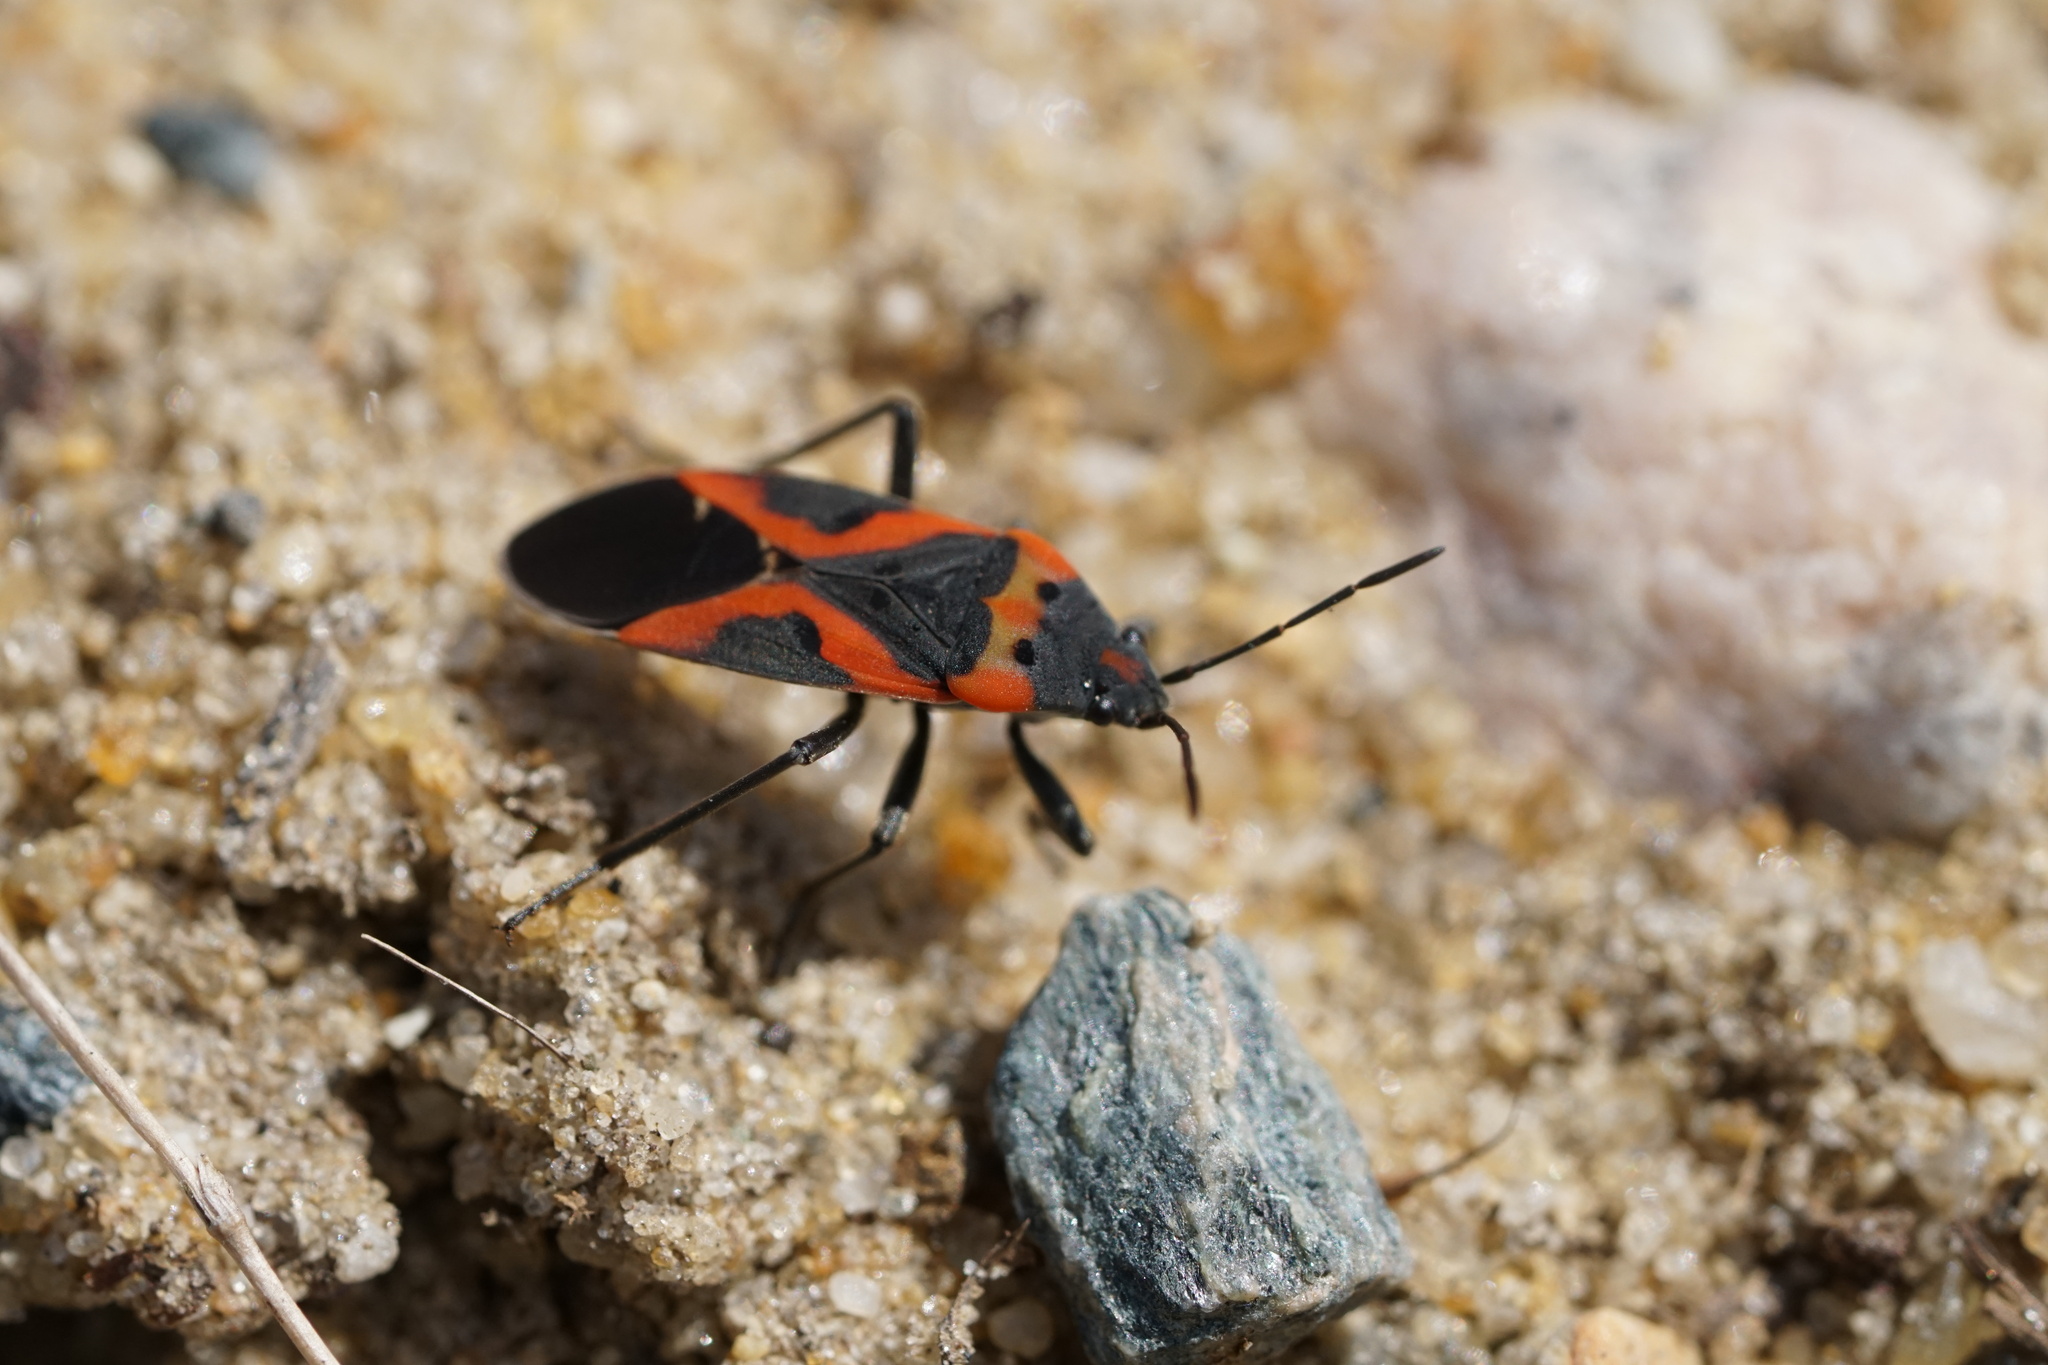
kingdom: Animalia
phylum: Arthropoda
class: Insecta
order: Hemiptera
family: Lygaeidae
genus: Lygaeus
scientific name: Lygaeus kalmii
